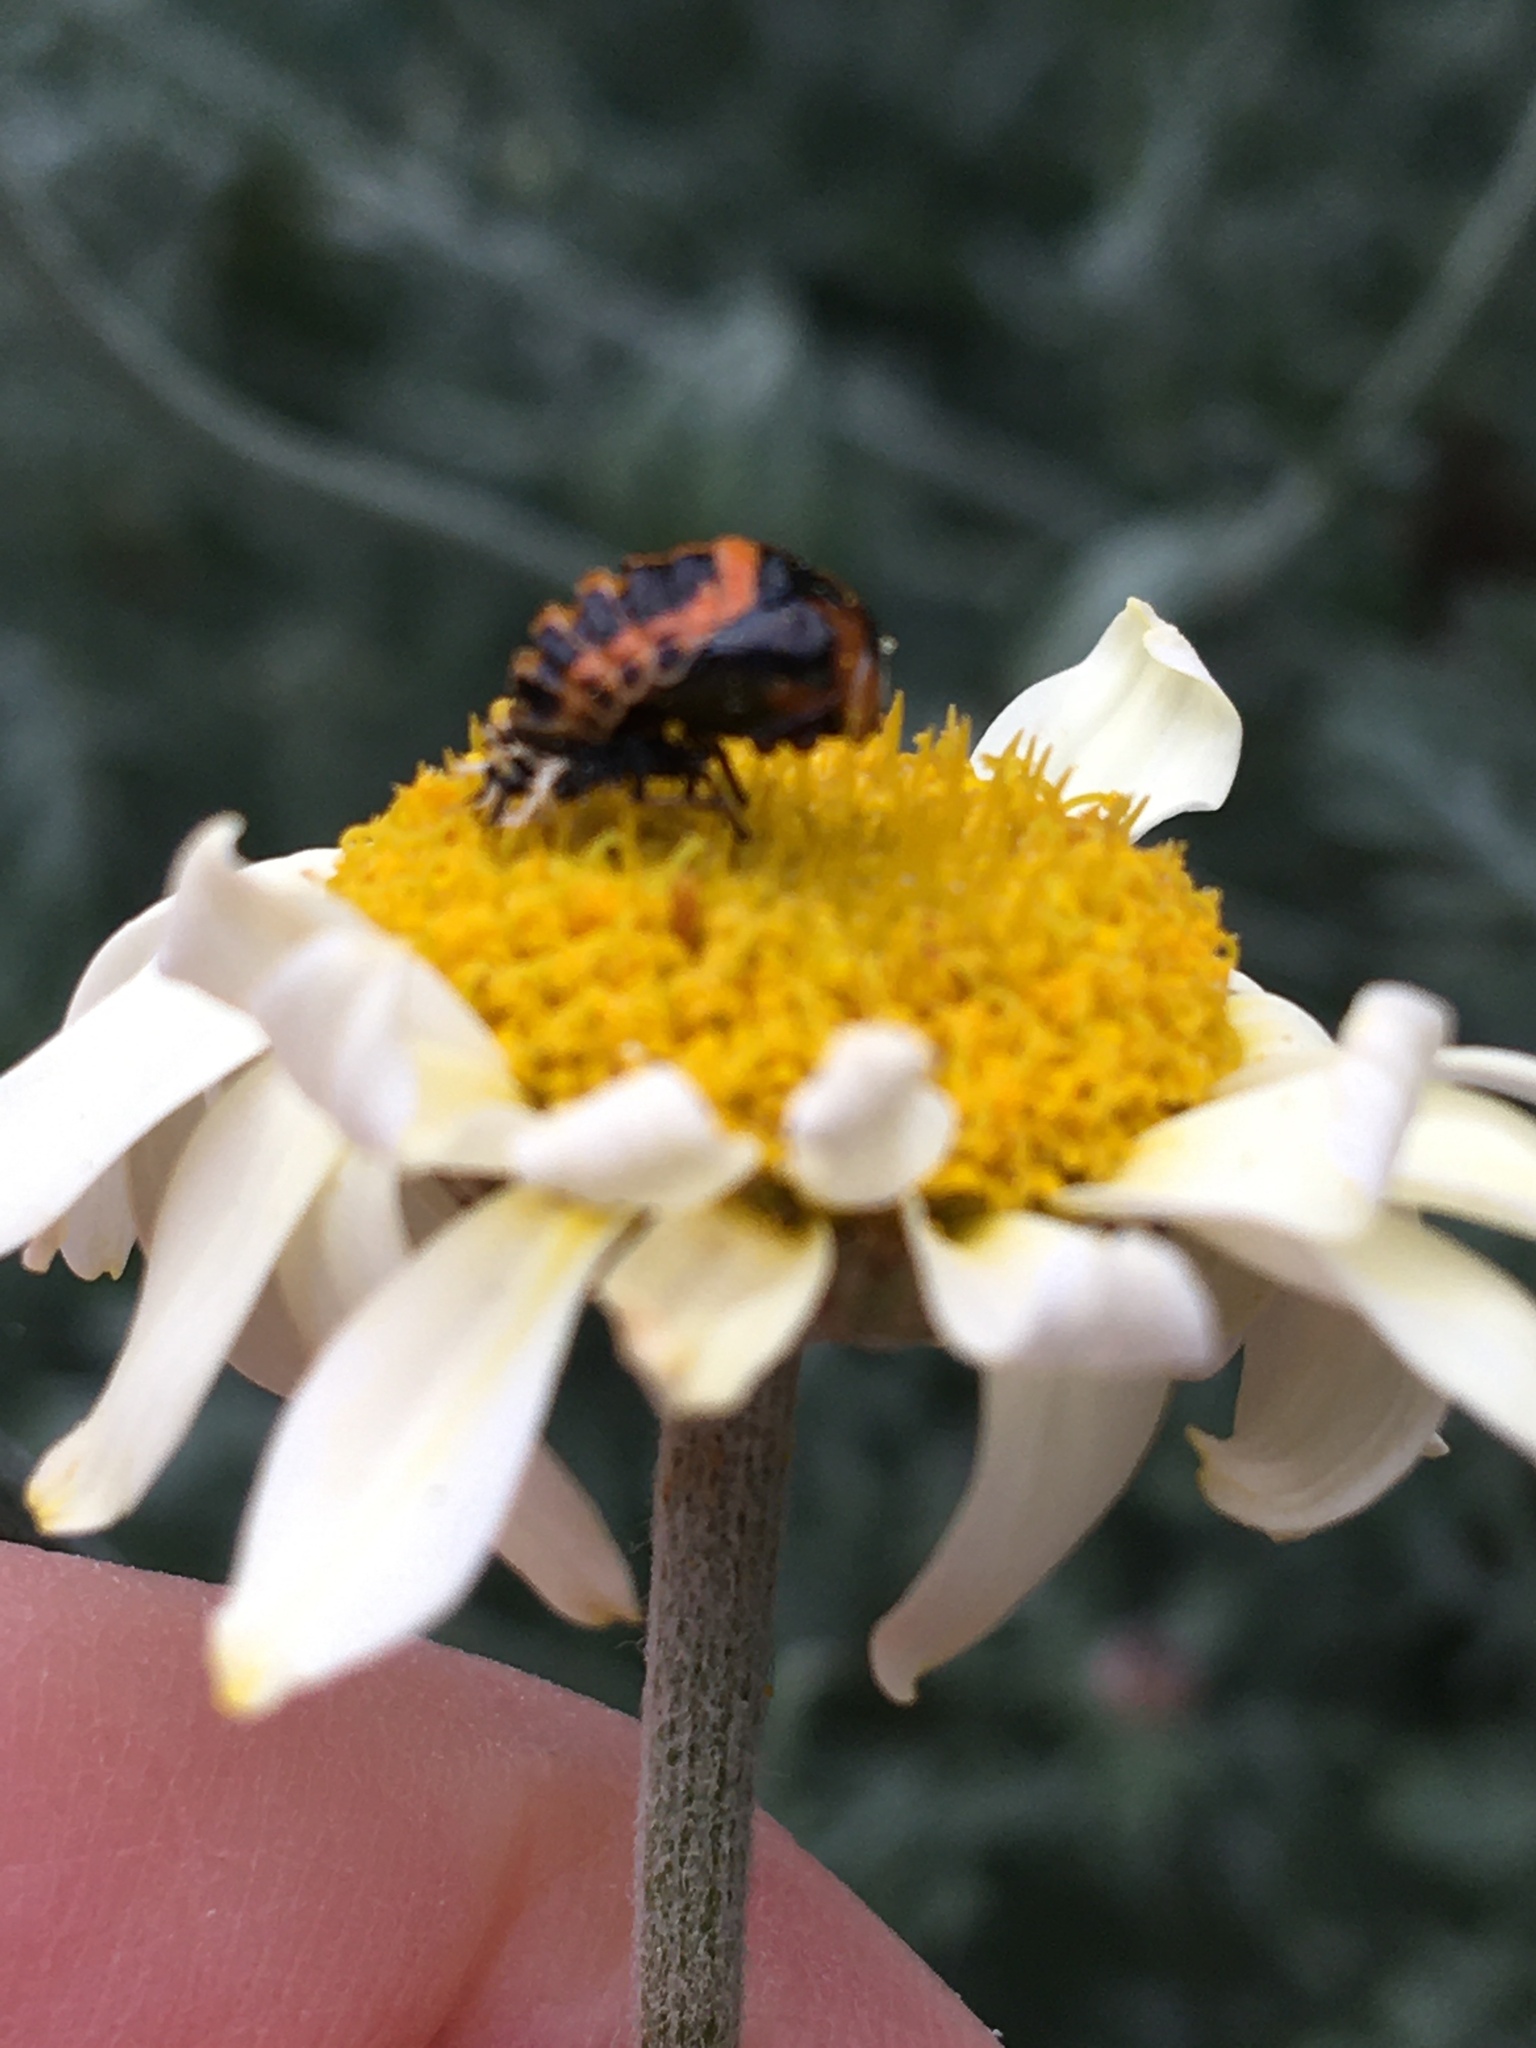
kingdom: Animalia
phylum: Arthropoda
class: Insecta
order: Coleoptera
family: Coccinellidae
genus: Harmonia
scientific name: Harmonia axyridis
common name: Harlequin ladybird
